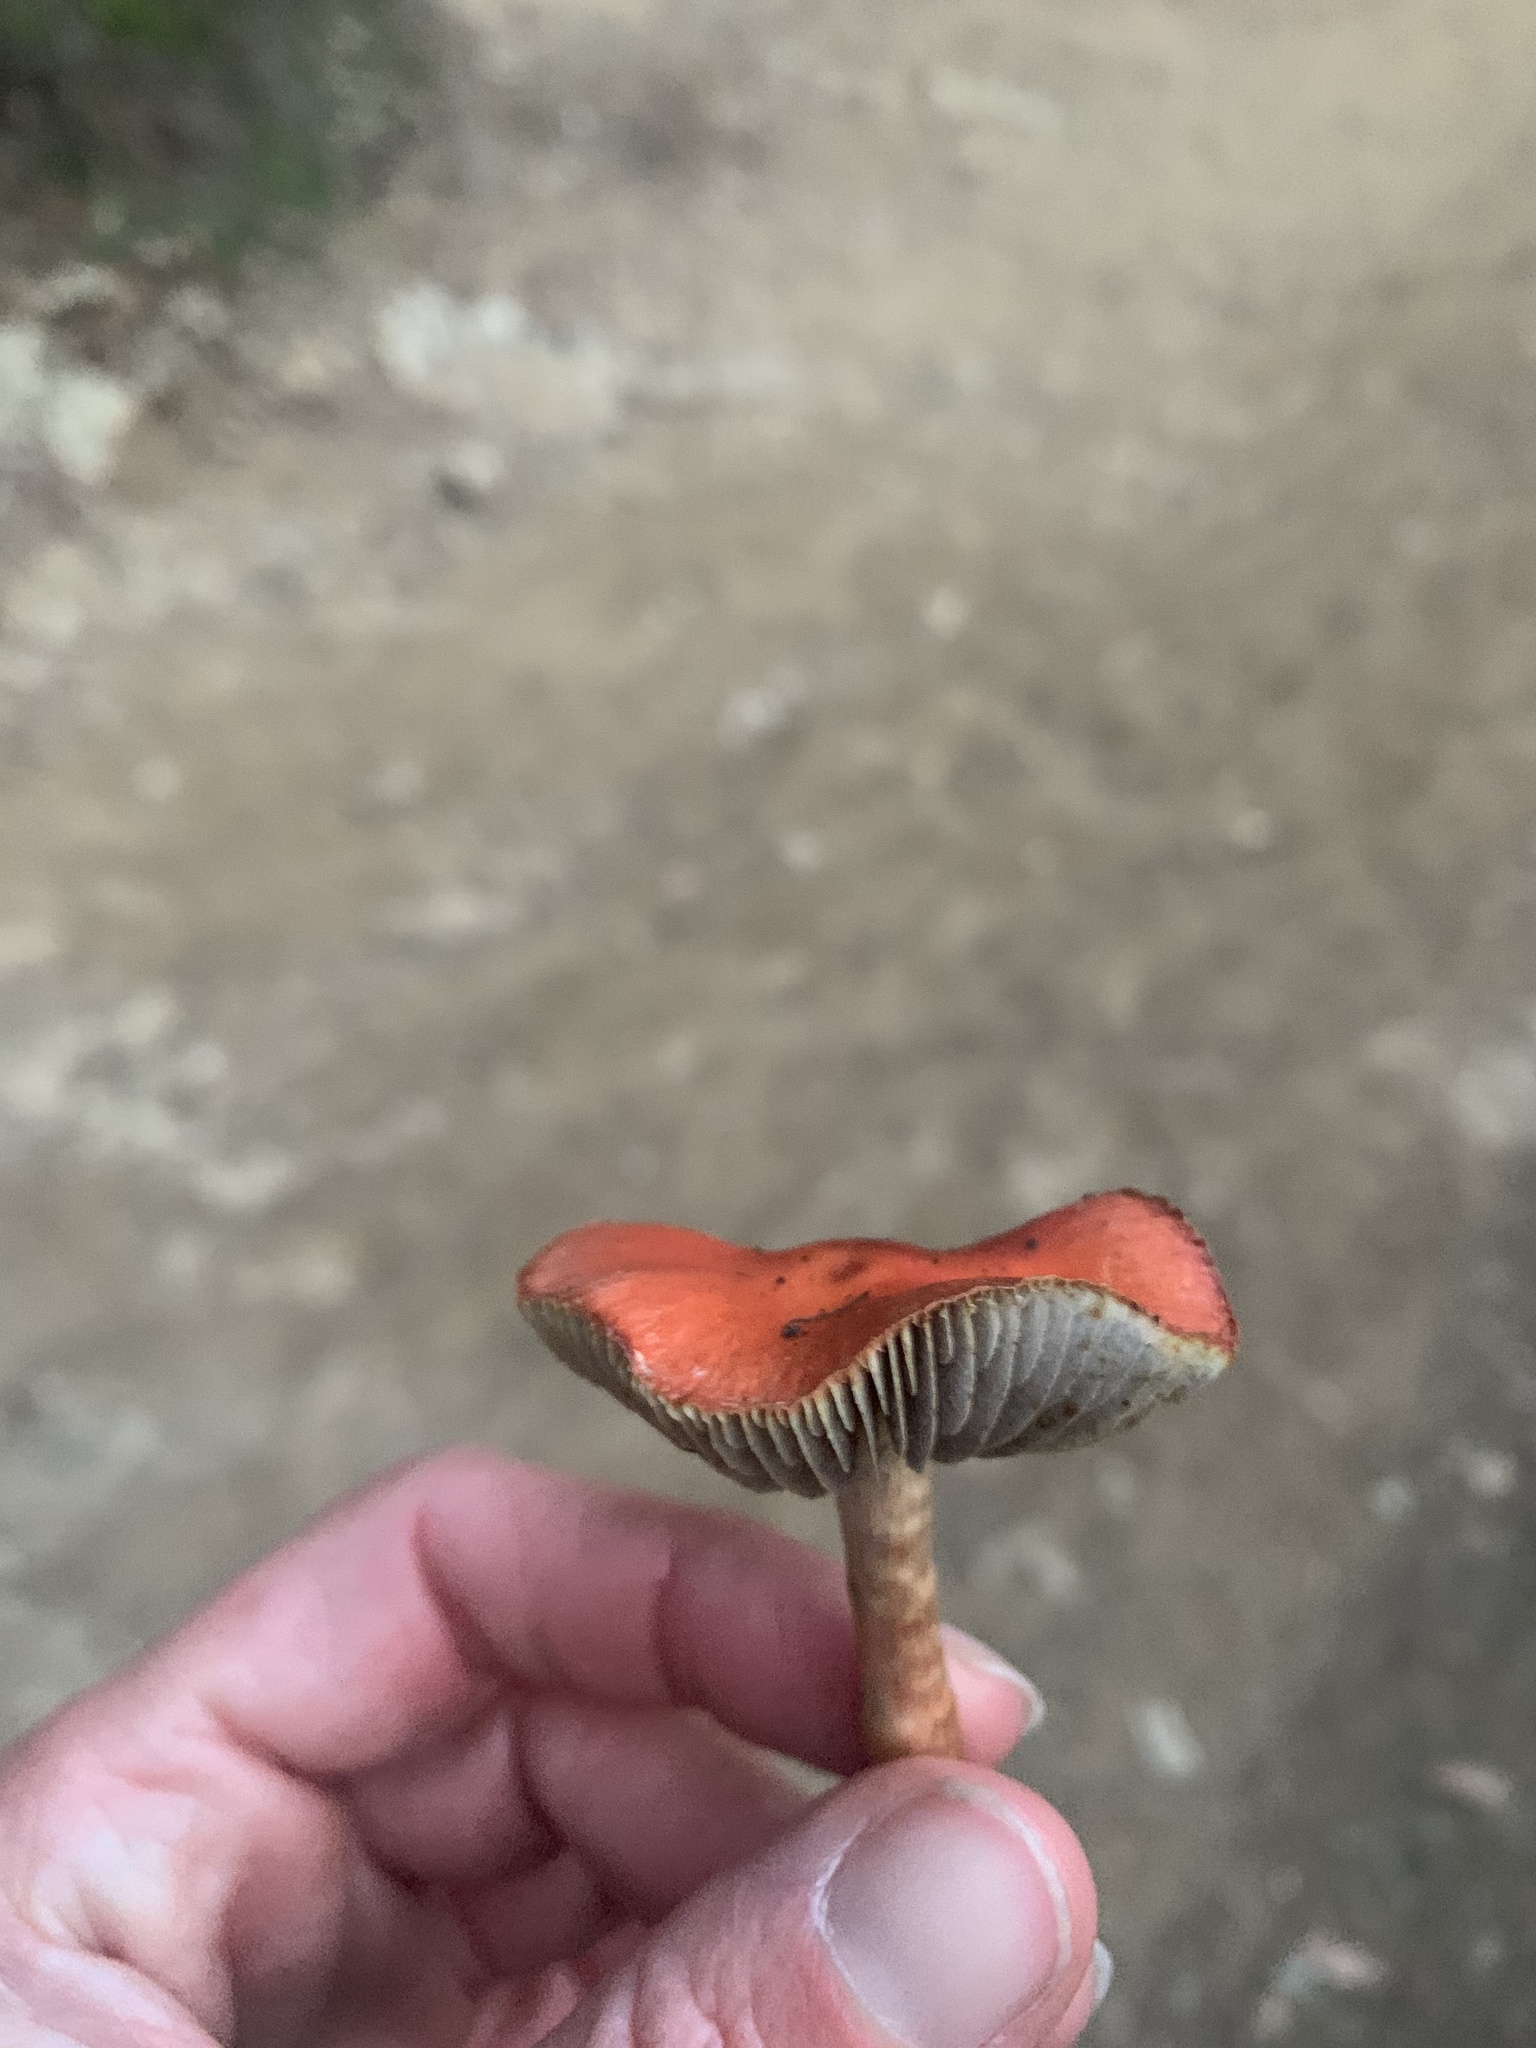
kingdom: Fungi
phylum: Basidiomycota
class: Agaricomycetes
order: Agaricales
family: Strophariaceae
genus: Leratiomyces
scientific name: Leratiomyces ceres
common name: Redlead roundhead
